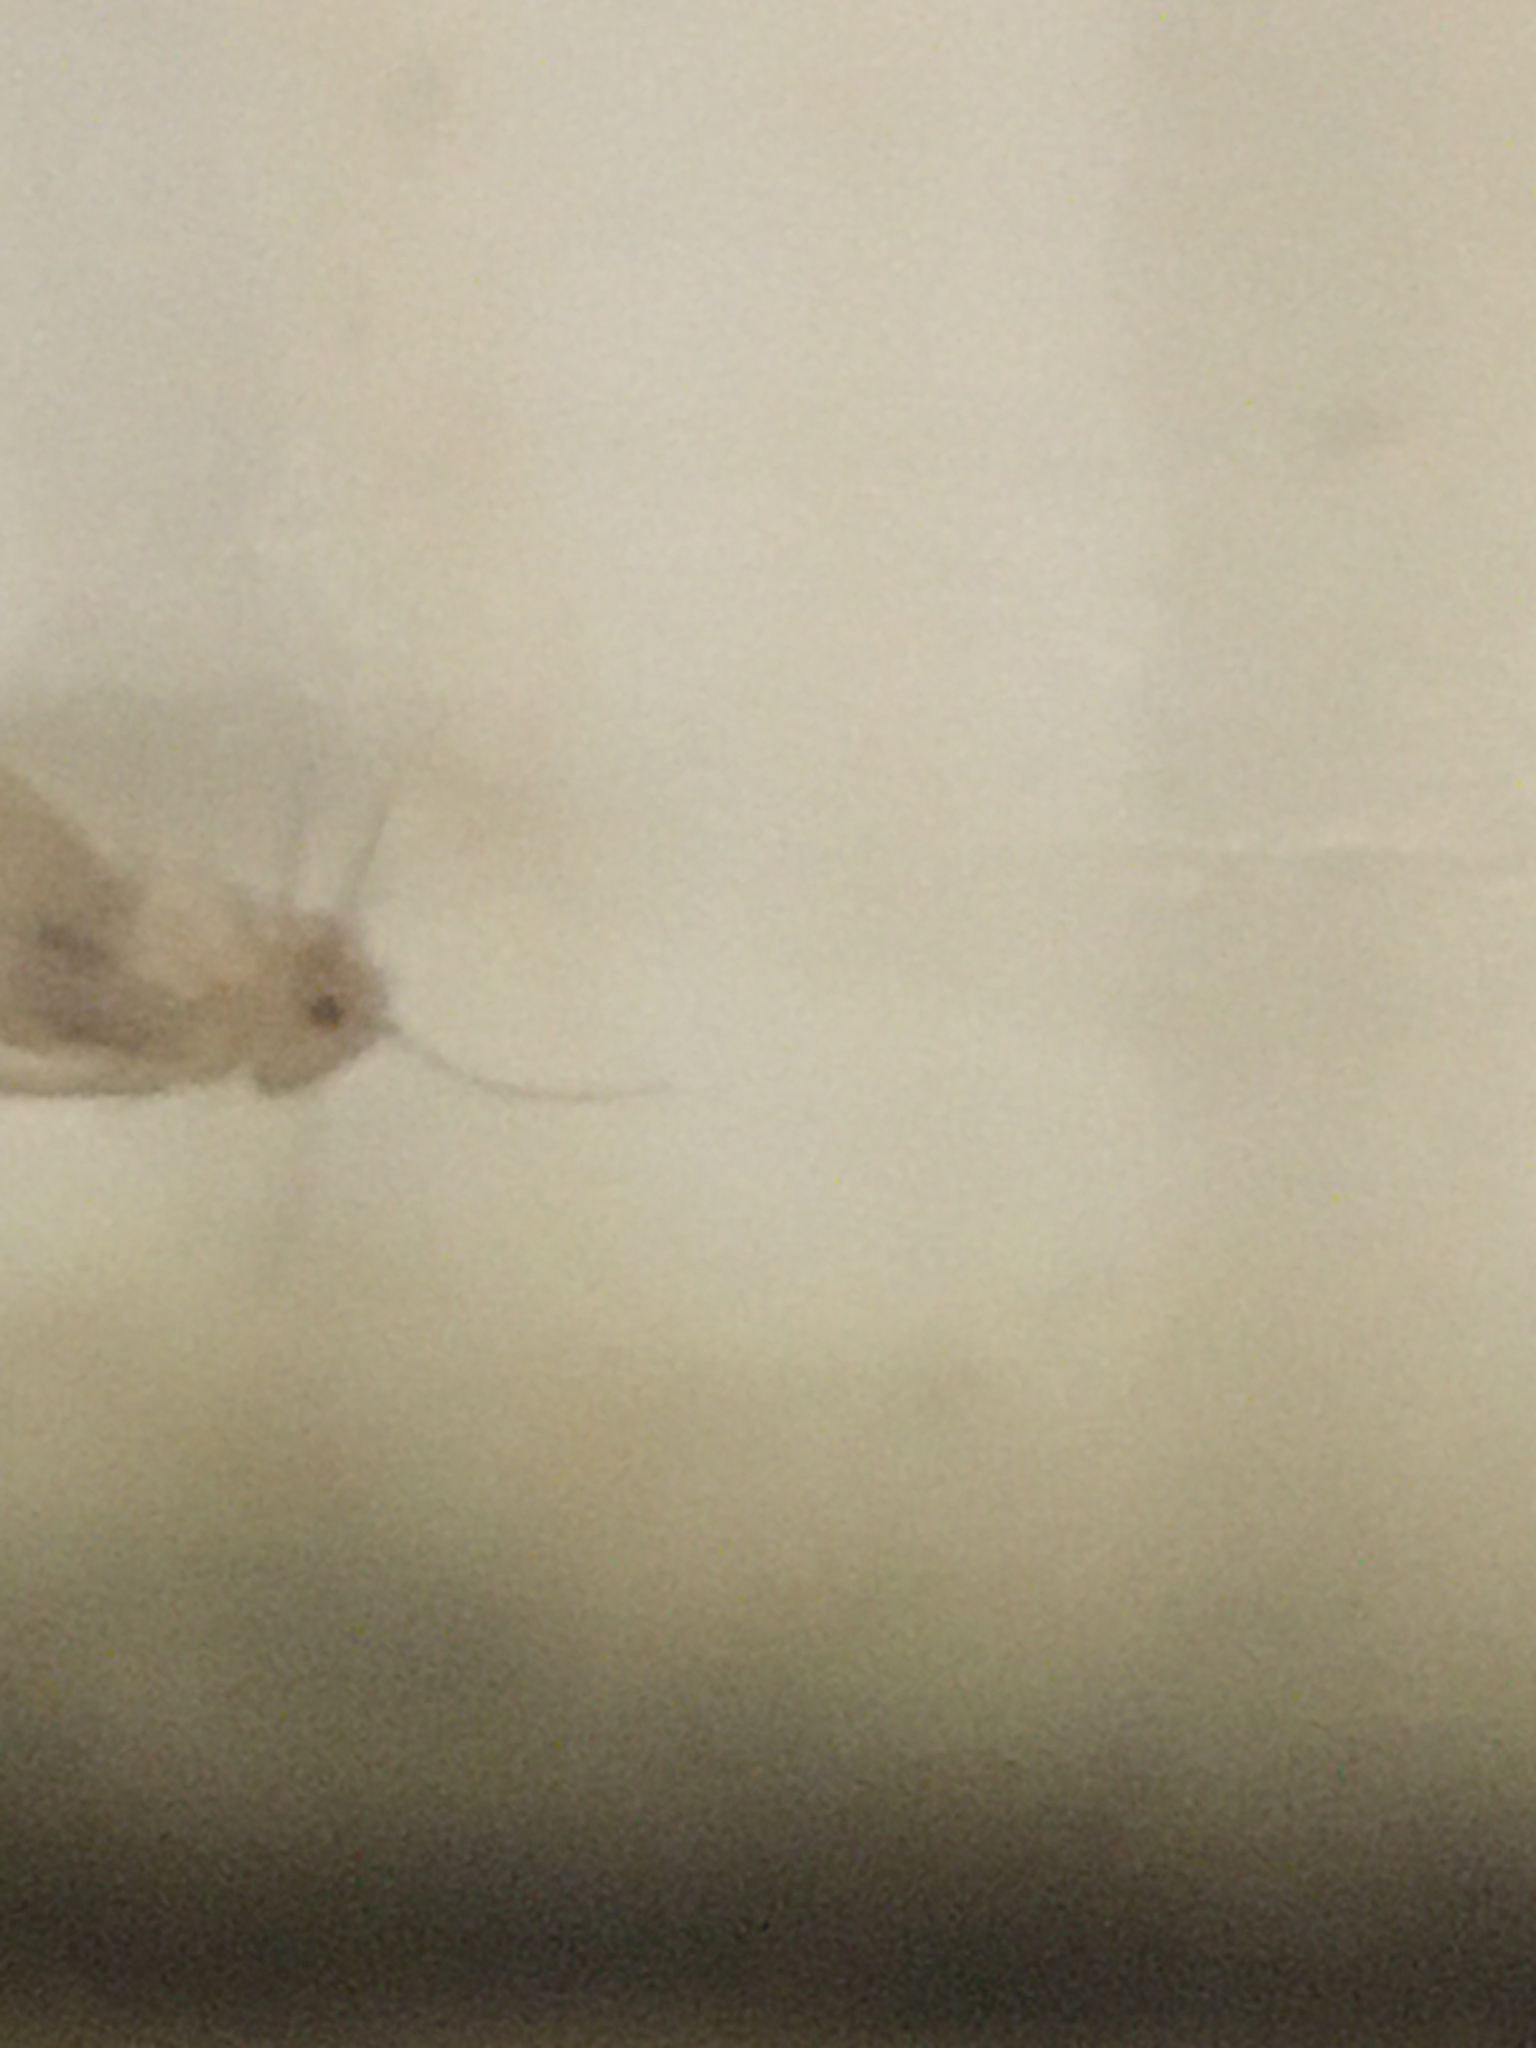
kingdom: Animalia
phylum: Arthropoda
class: Insecta
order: Psocodea
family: Psyllipsocidae
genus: Dorypteryx
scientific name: Dorypteryx domestica
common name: Cave barklouse
